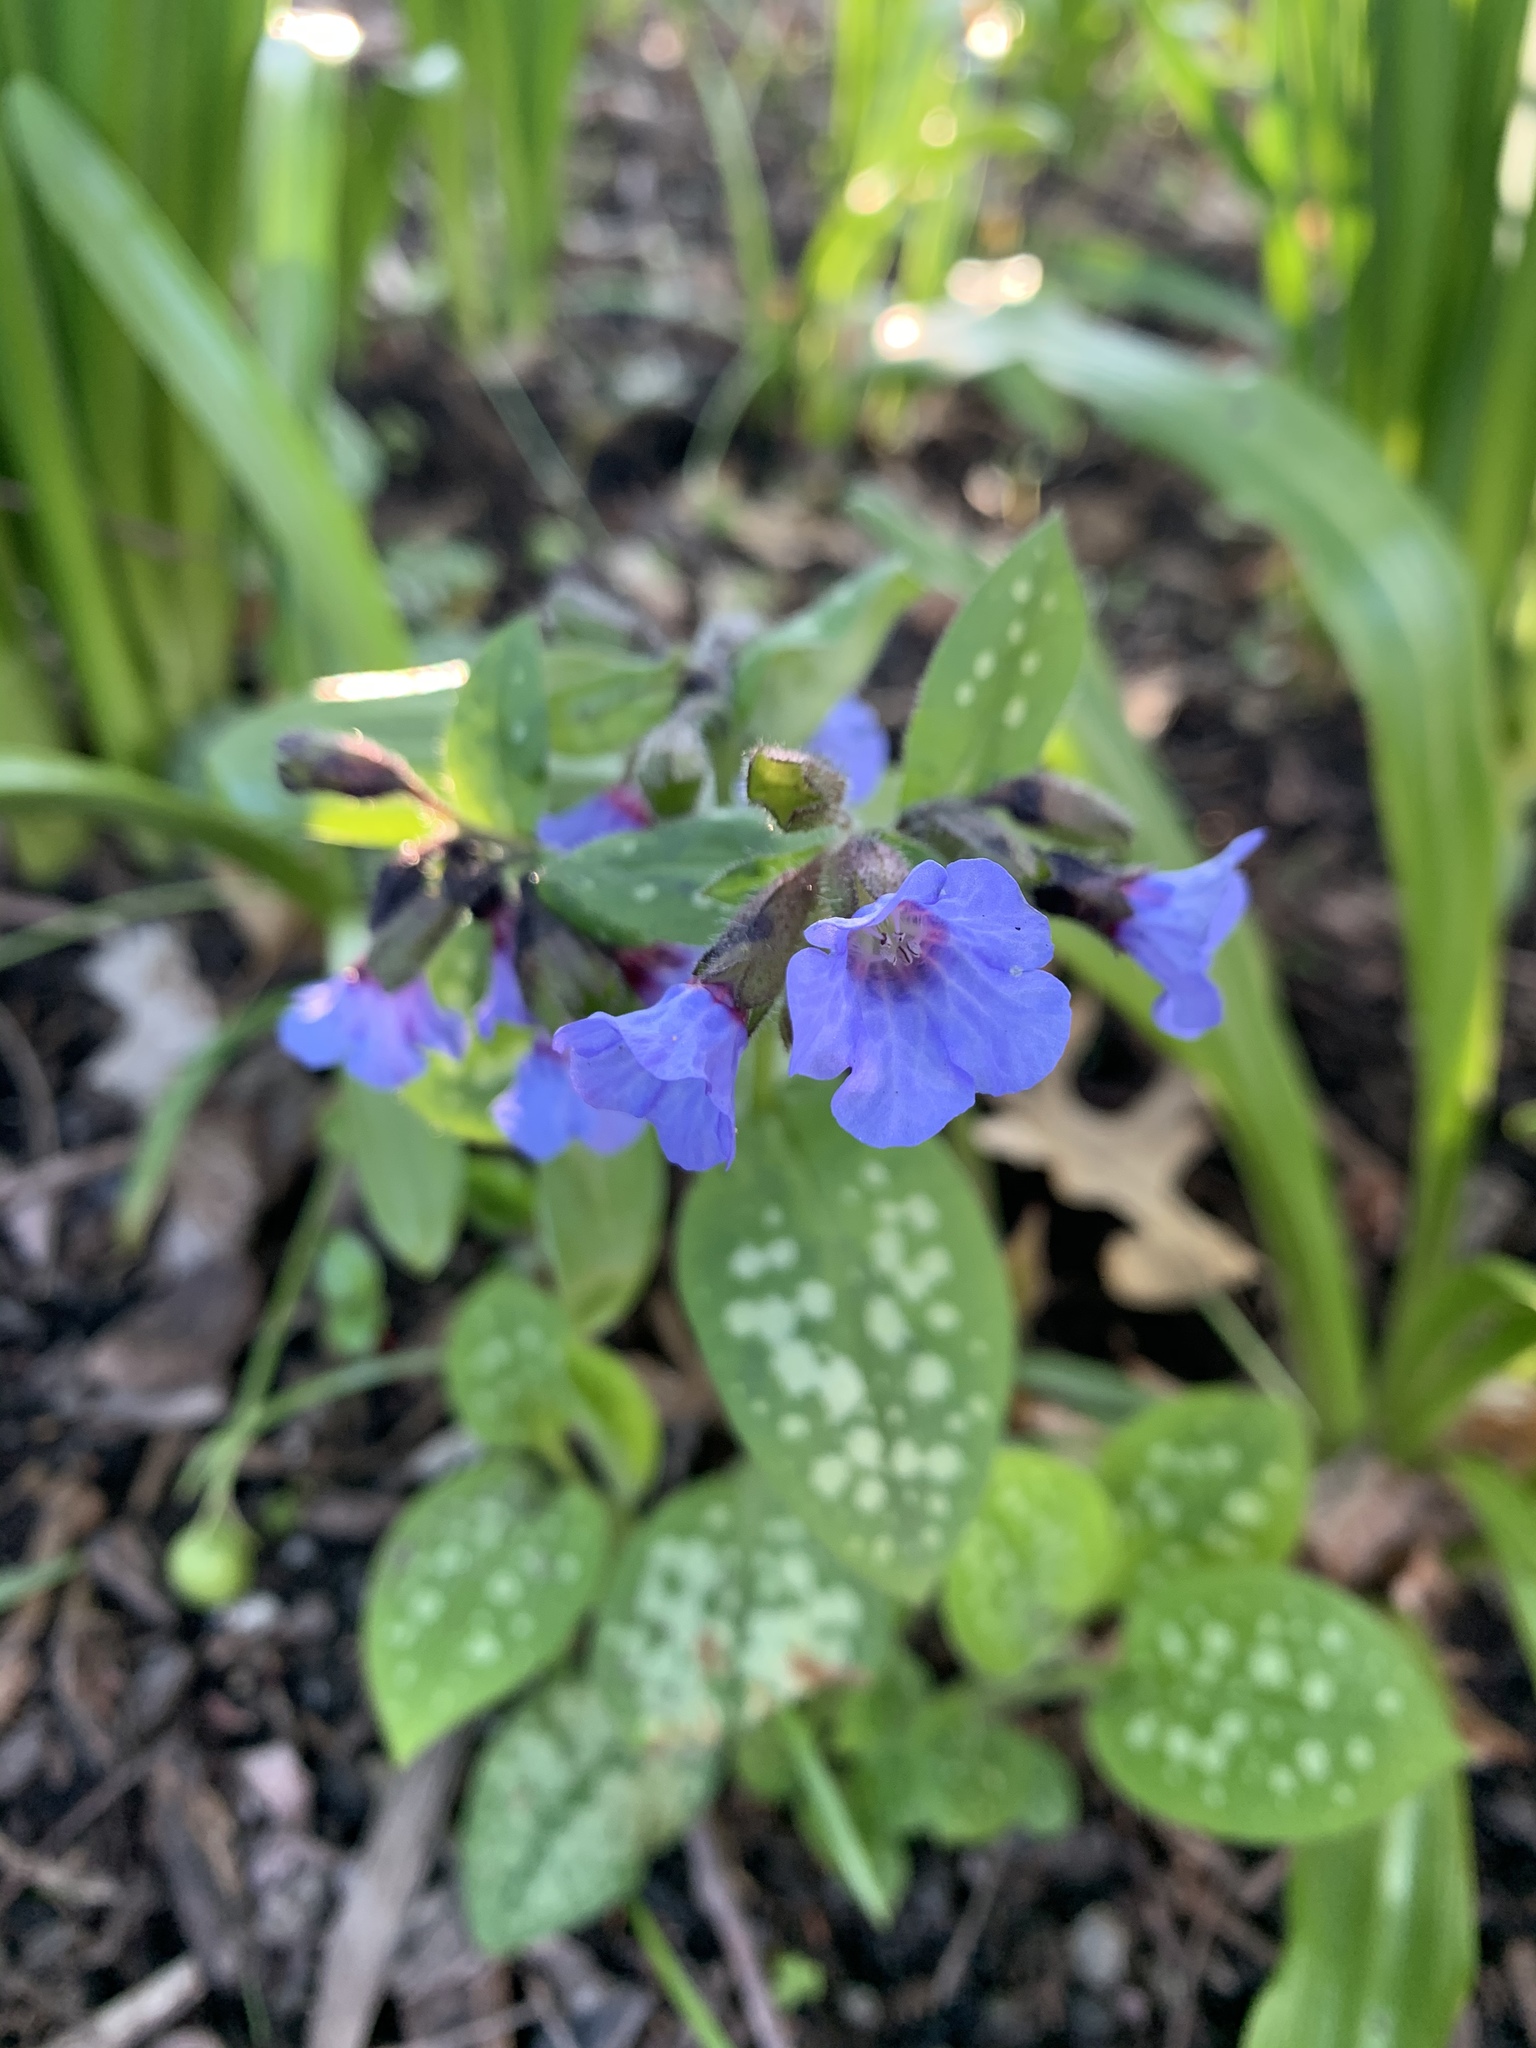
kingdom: Plantae
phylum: Tracheophyta
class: Magnoliopsida
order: Boraginales
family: Boraginaceae
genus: Pulmonaria
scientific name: Pulmonaria
